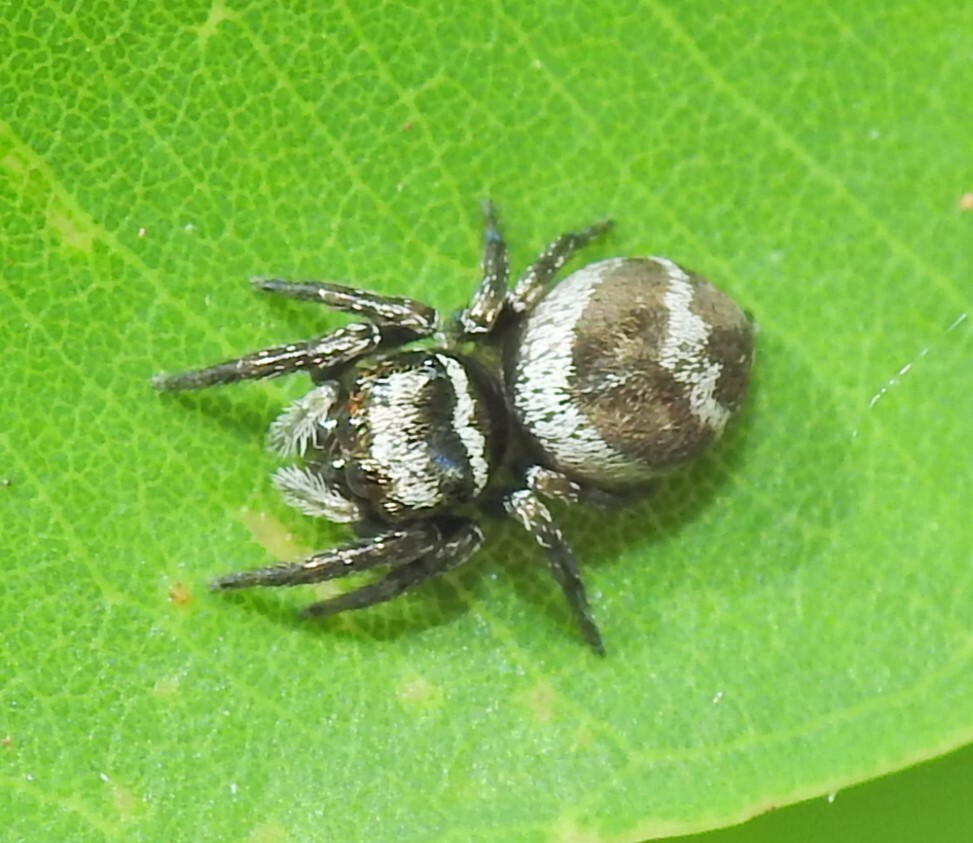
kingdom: Animalia
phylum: Arthropoda
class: Arachnida
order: Araneae
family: Salticidae
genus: Euryattus
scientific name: Euryattus bleekeri
